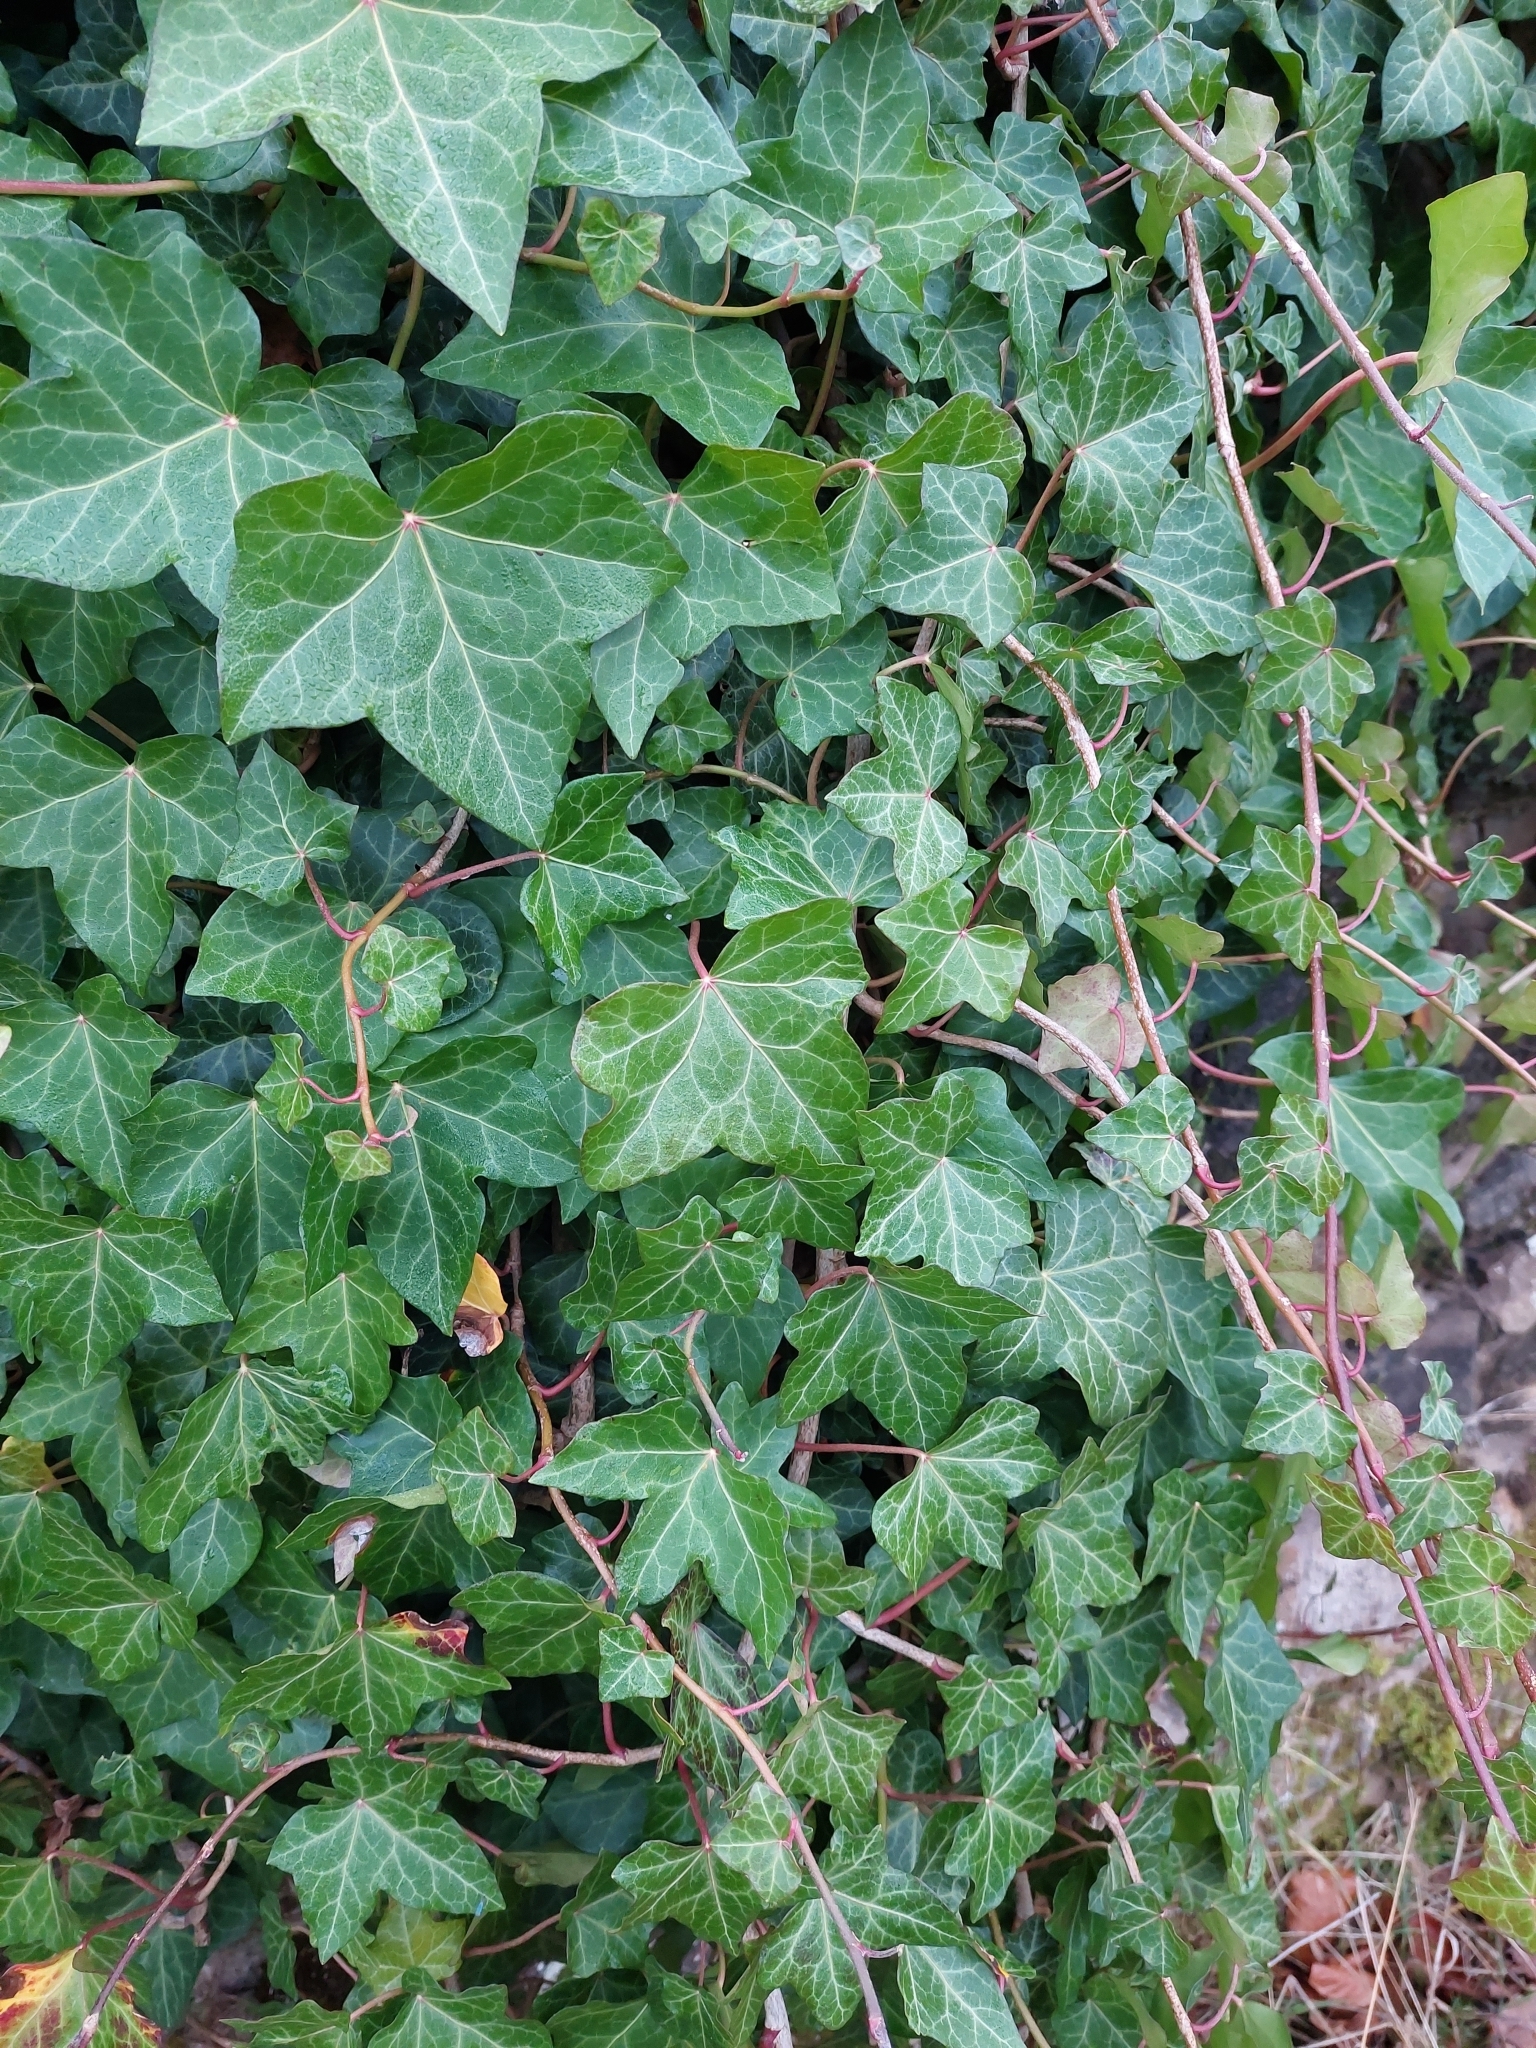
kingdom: Plantae
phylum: Tracheophyta
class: Magnoliopsida
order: Apiales
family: Araliaceae
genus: Hedera
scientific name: Hedera helix
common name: Ivy
